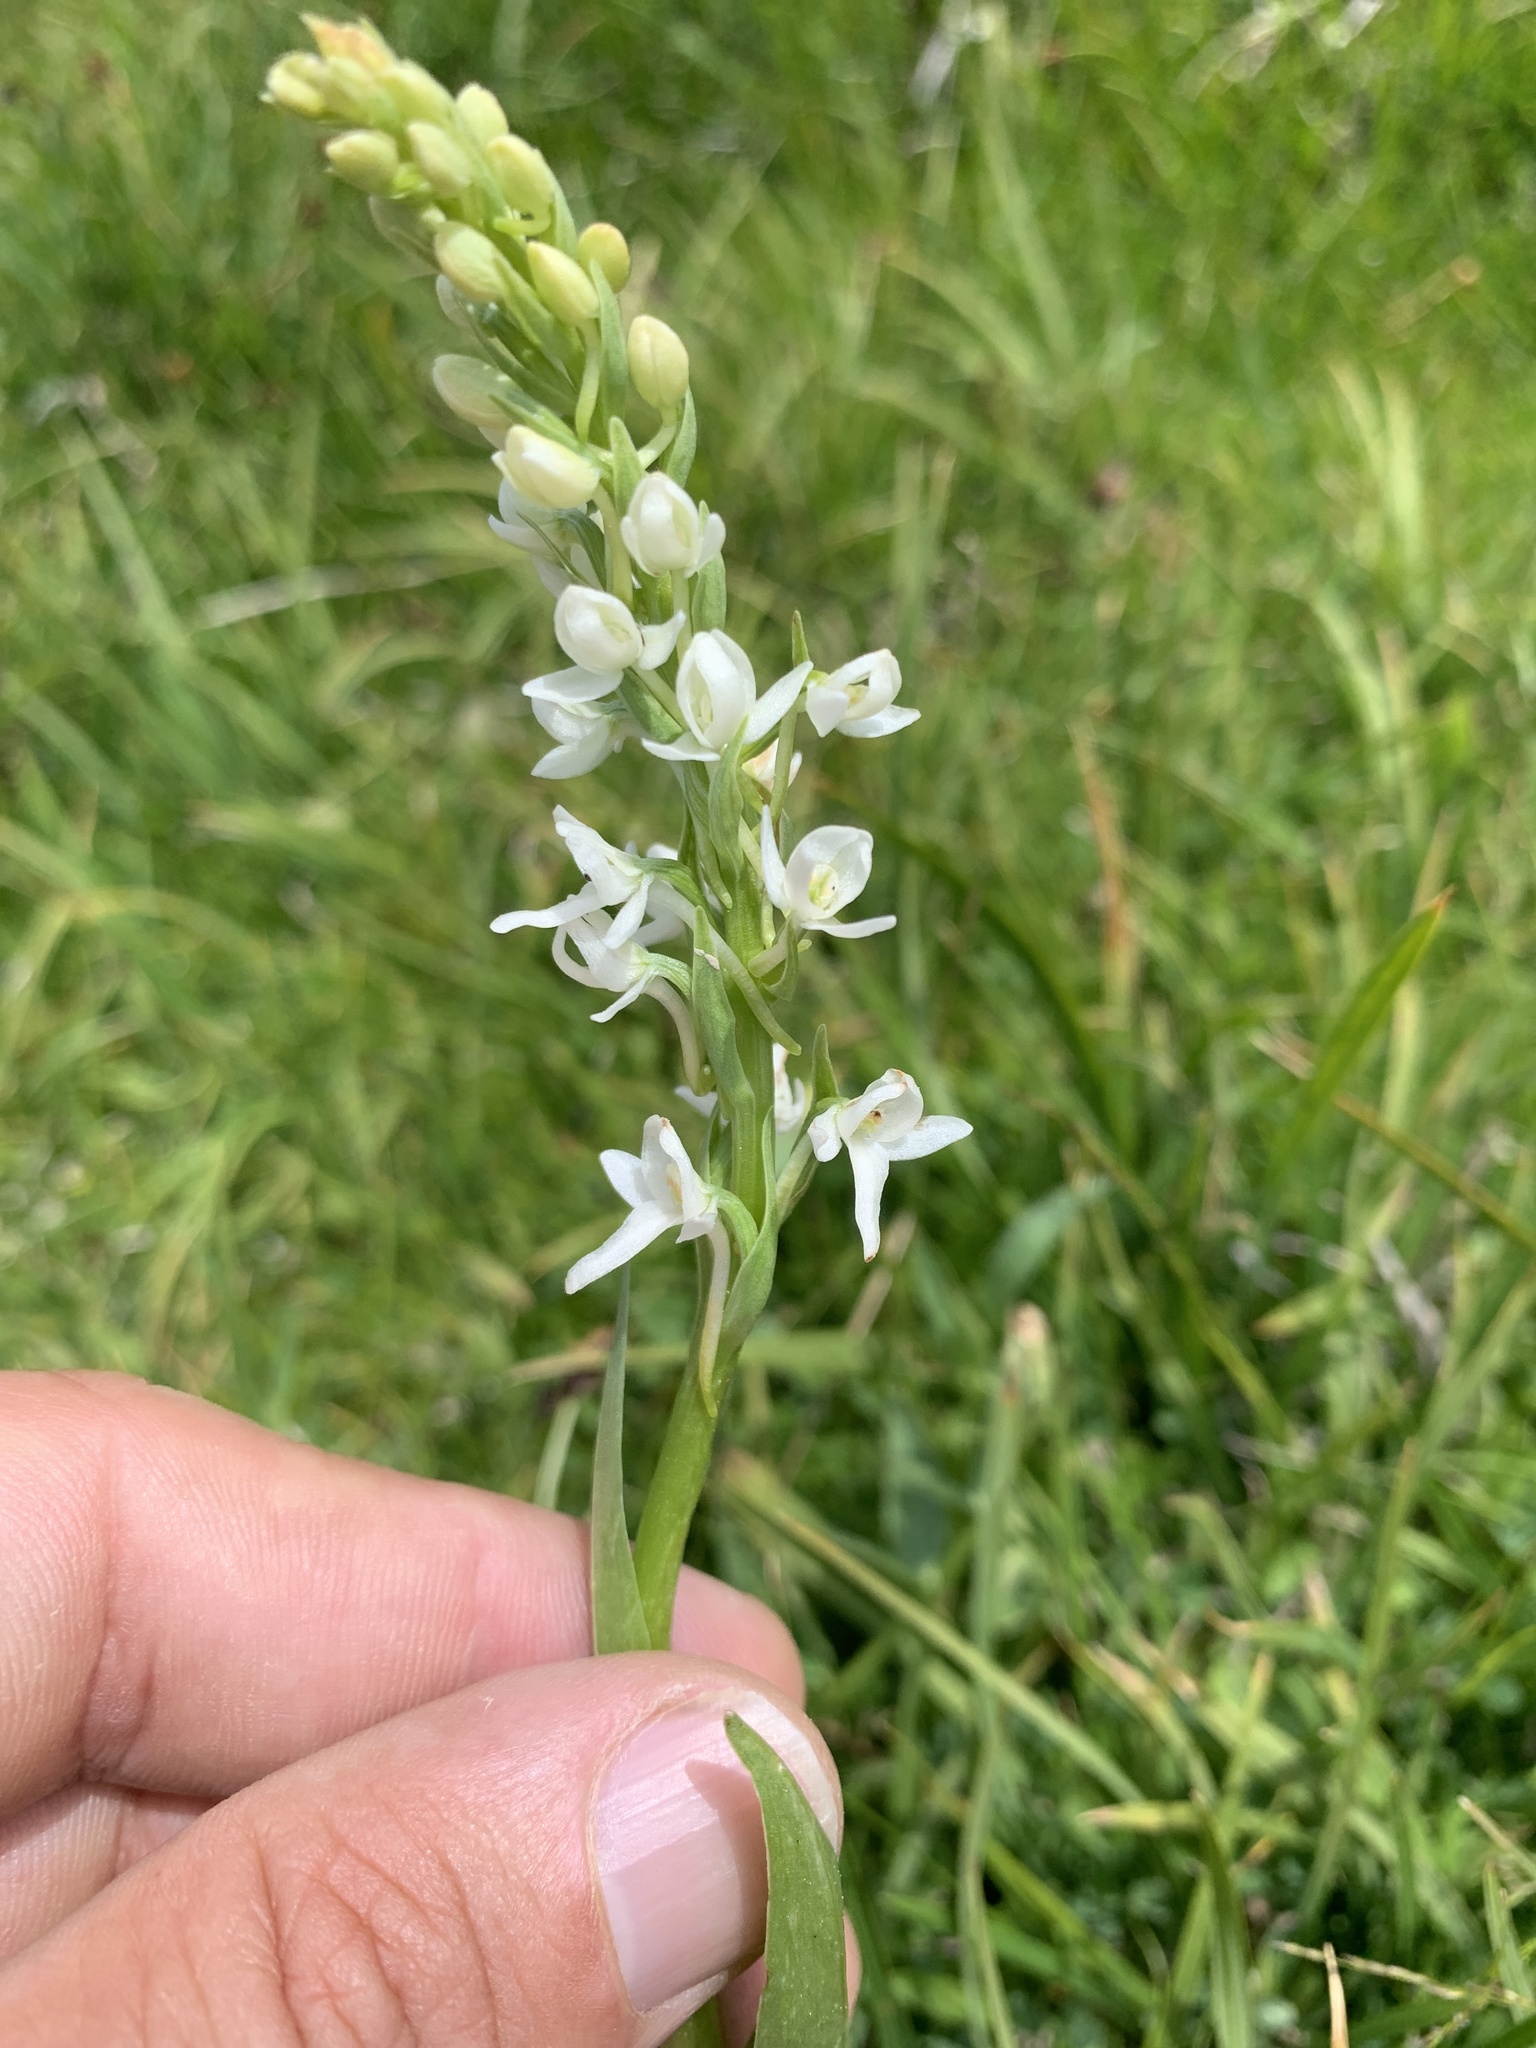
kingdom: Plantae
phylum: Tracheophyta
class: Liliopsida
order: Asparagales
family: Orchidaceae
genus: Platanthera
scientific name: Platanthera dilatata
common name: Bog candles
